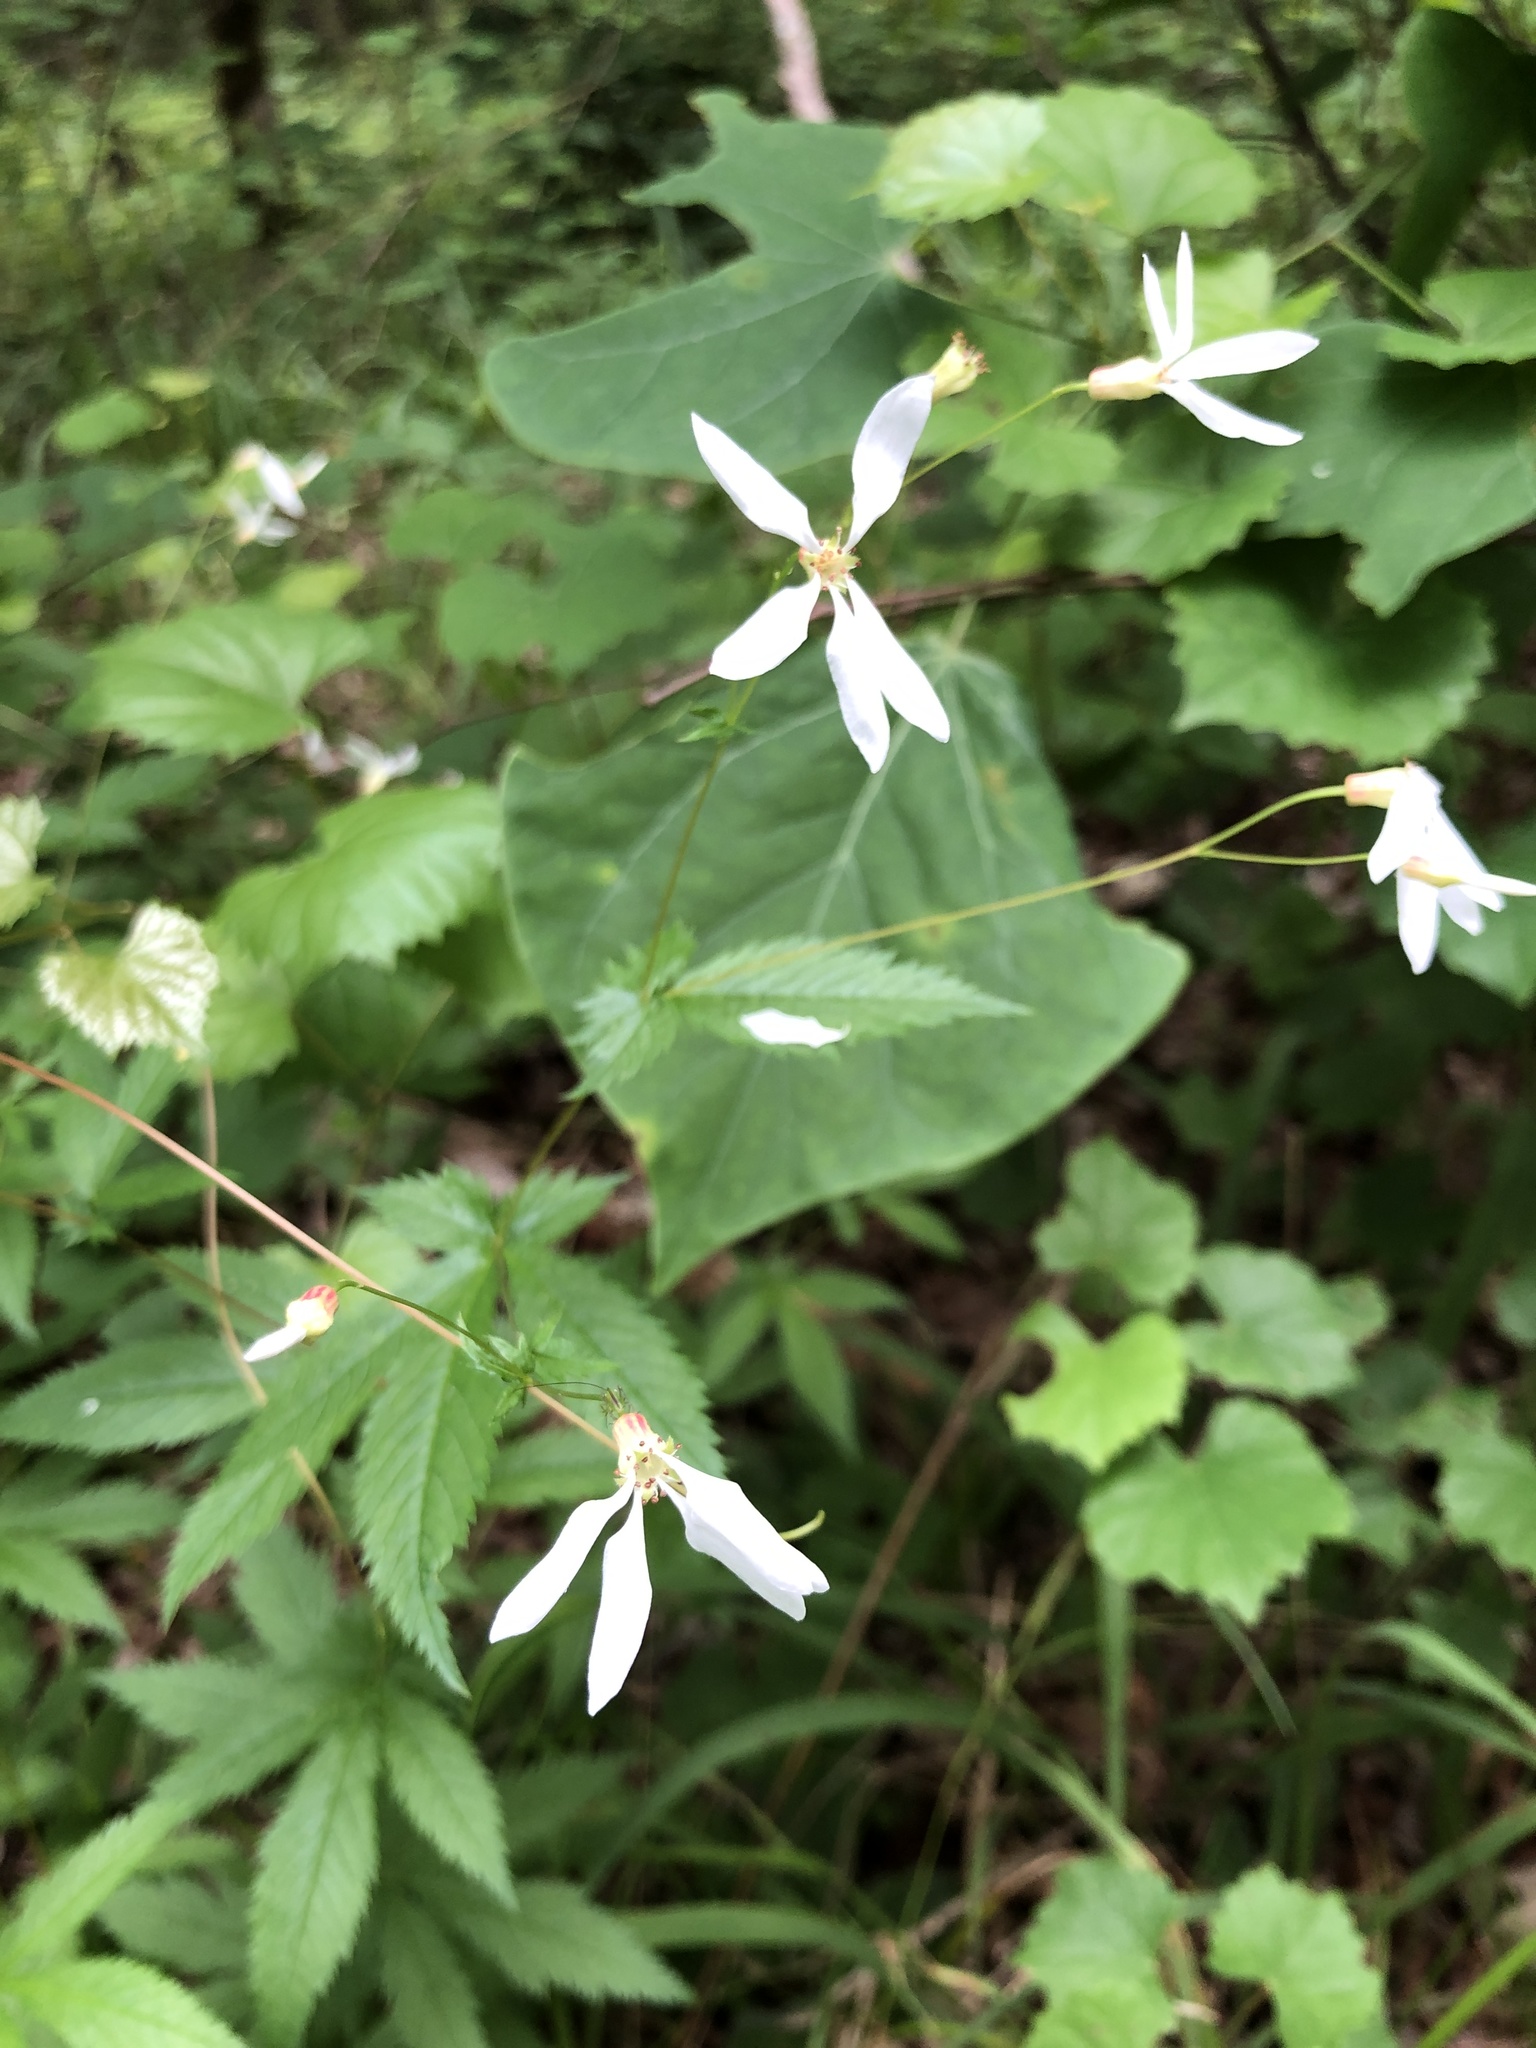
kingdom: Plantae
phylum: Tracheophyta
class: Magnoliopsida
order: Rosales
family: Rosaceae
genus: Gillenia
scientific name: Gillenia stipulata
